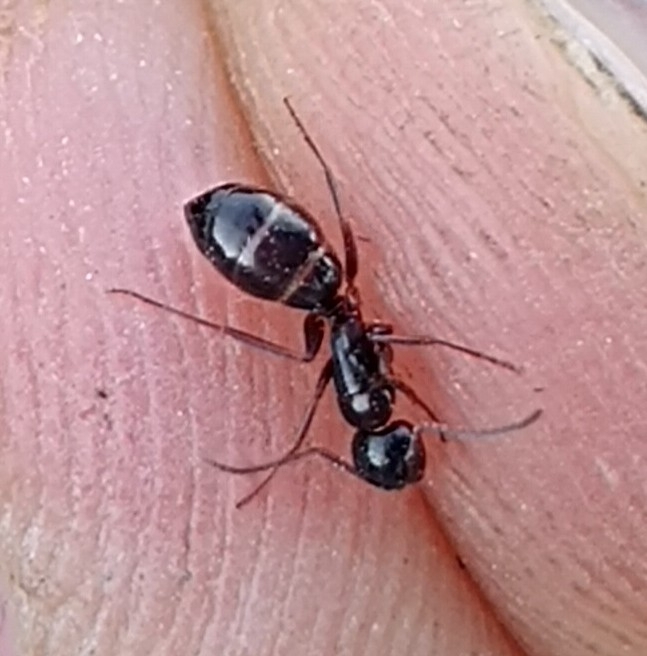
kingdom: Animalia
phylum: Arthropoda
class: Insecta
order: Hymenoptera
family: Formicidae
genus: Camponotus
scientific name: Camponotus fallax
